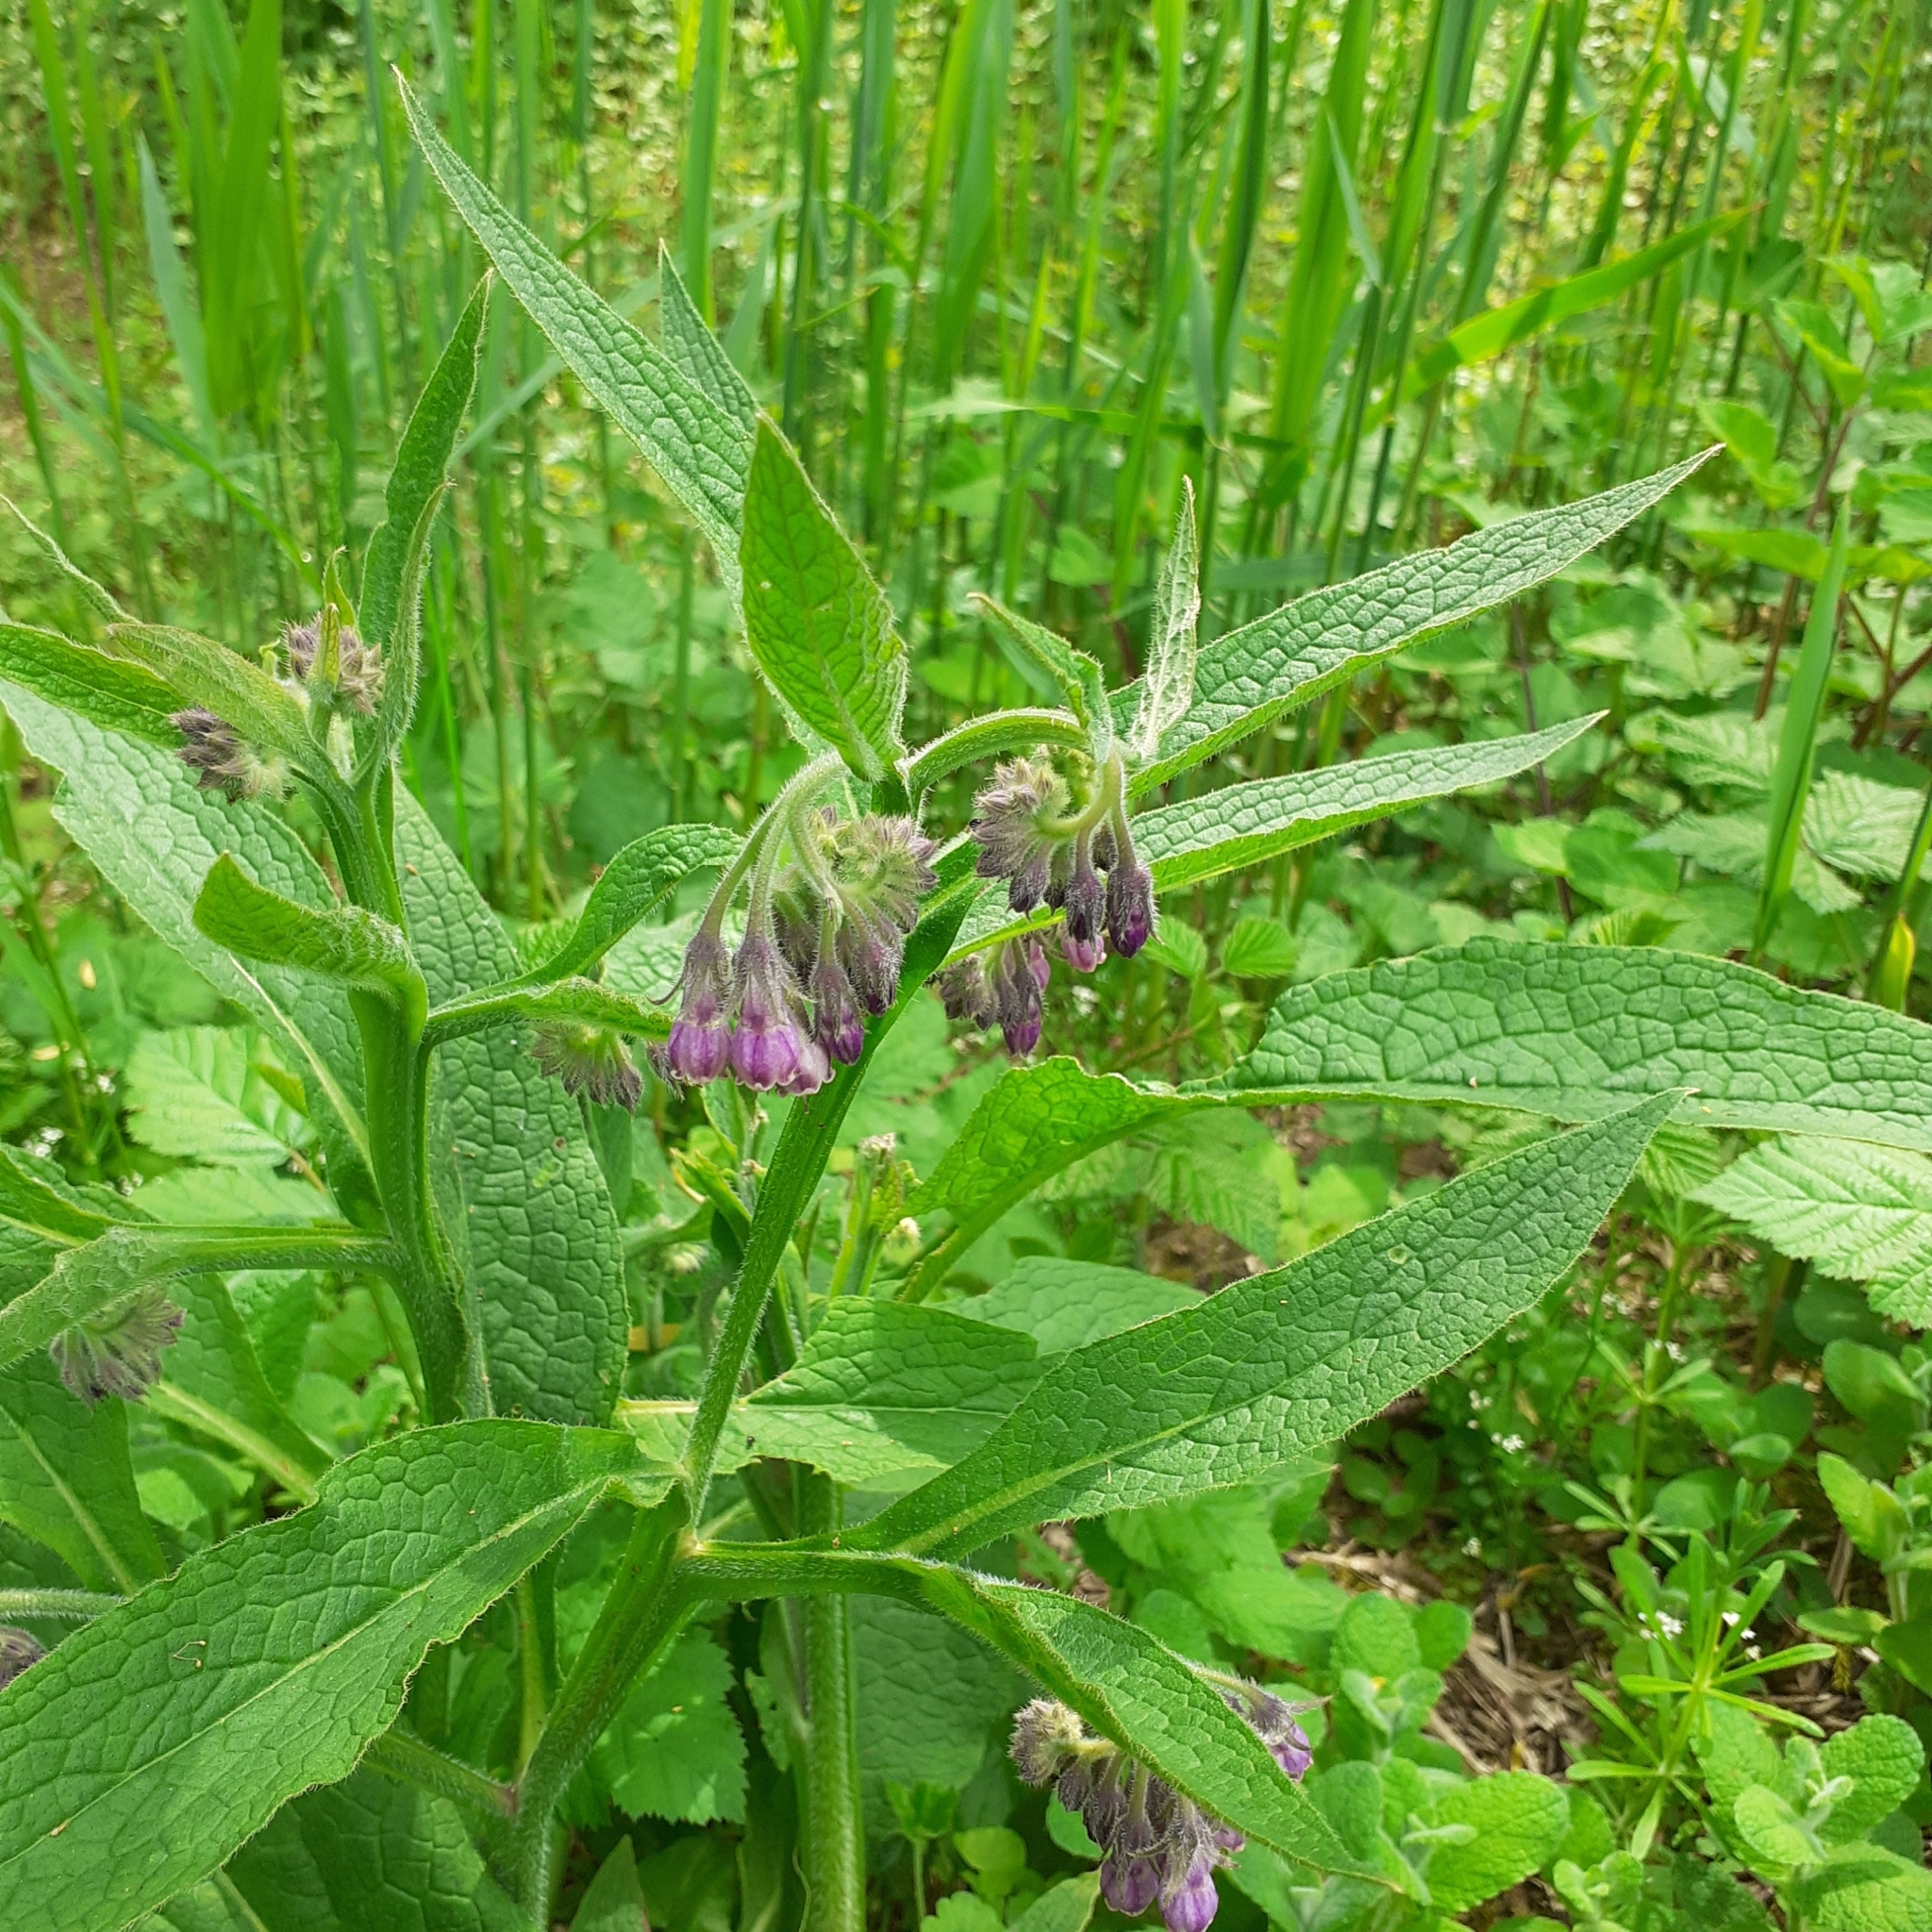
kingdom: Plantae
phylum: Tracheophyta
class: Magnoliopsida
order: Boraginales
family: Boraginaceae
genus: Symphytum
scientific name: Symphytum officinale
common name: Common comfrey
